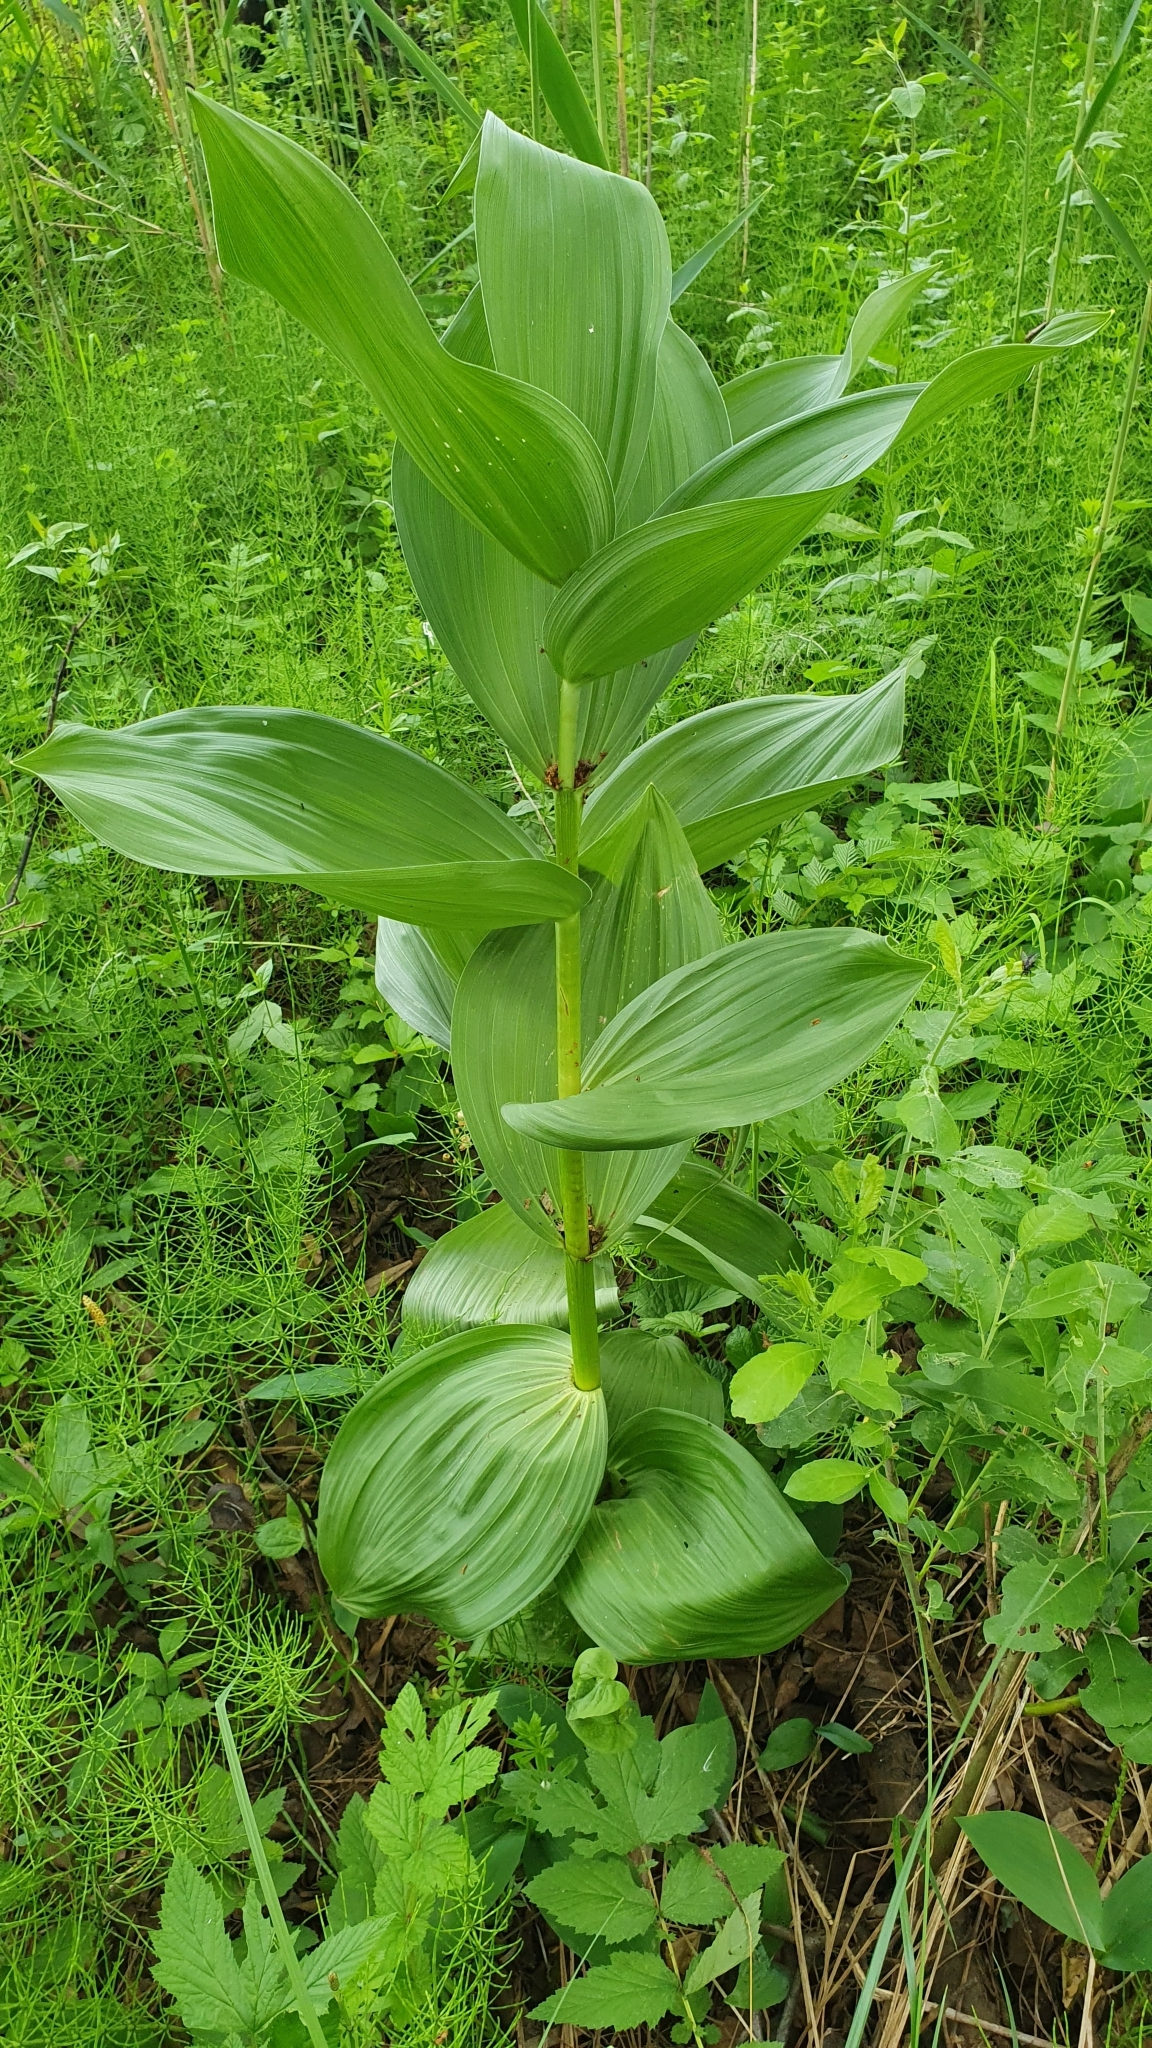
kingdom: Plantae
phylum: Tracheophyta
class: Liliopsida
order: Liliales
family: Melanthiaceae
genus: Veratrum
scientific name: Veratrum lobelianum
